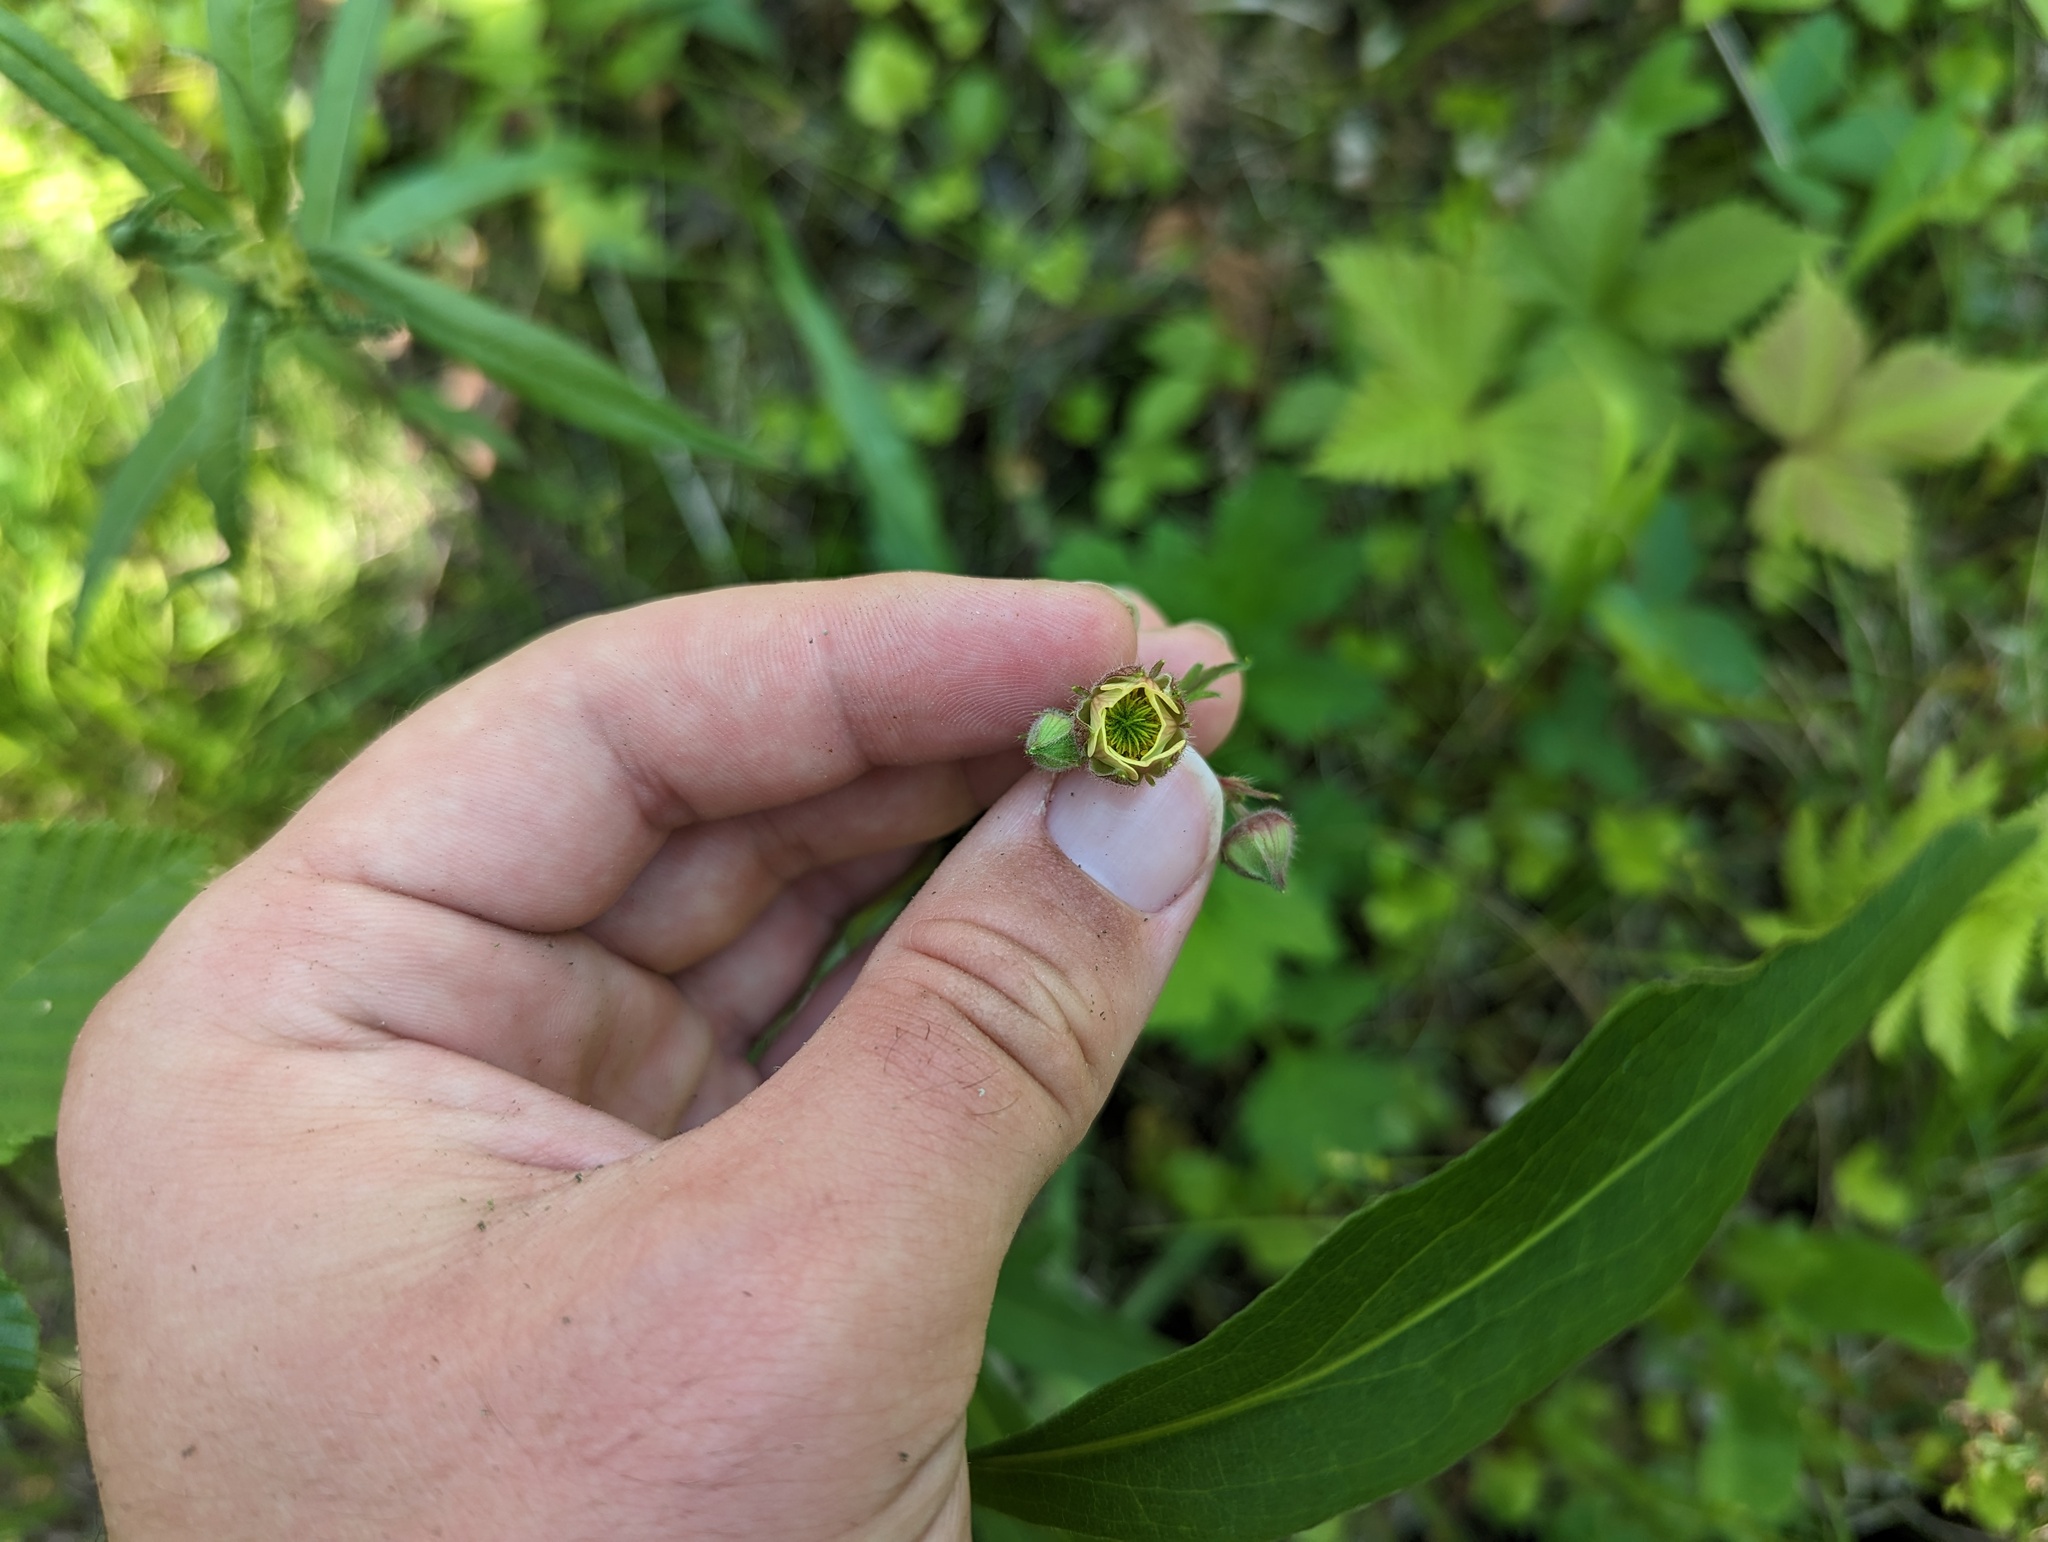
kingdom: Plantae
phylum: Tracheophyta
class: Magnoliopsida
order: Rosales
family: Rosaceae
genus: Geum
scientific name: Geum rivale
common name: Water avens
